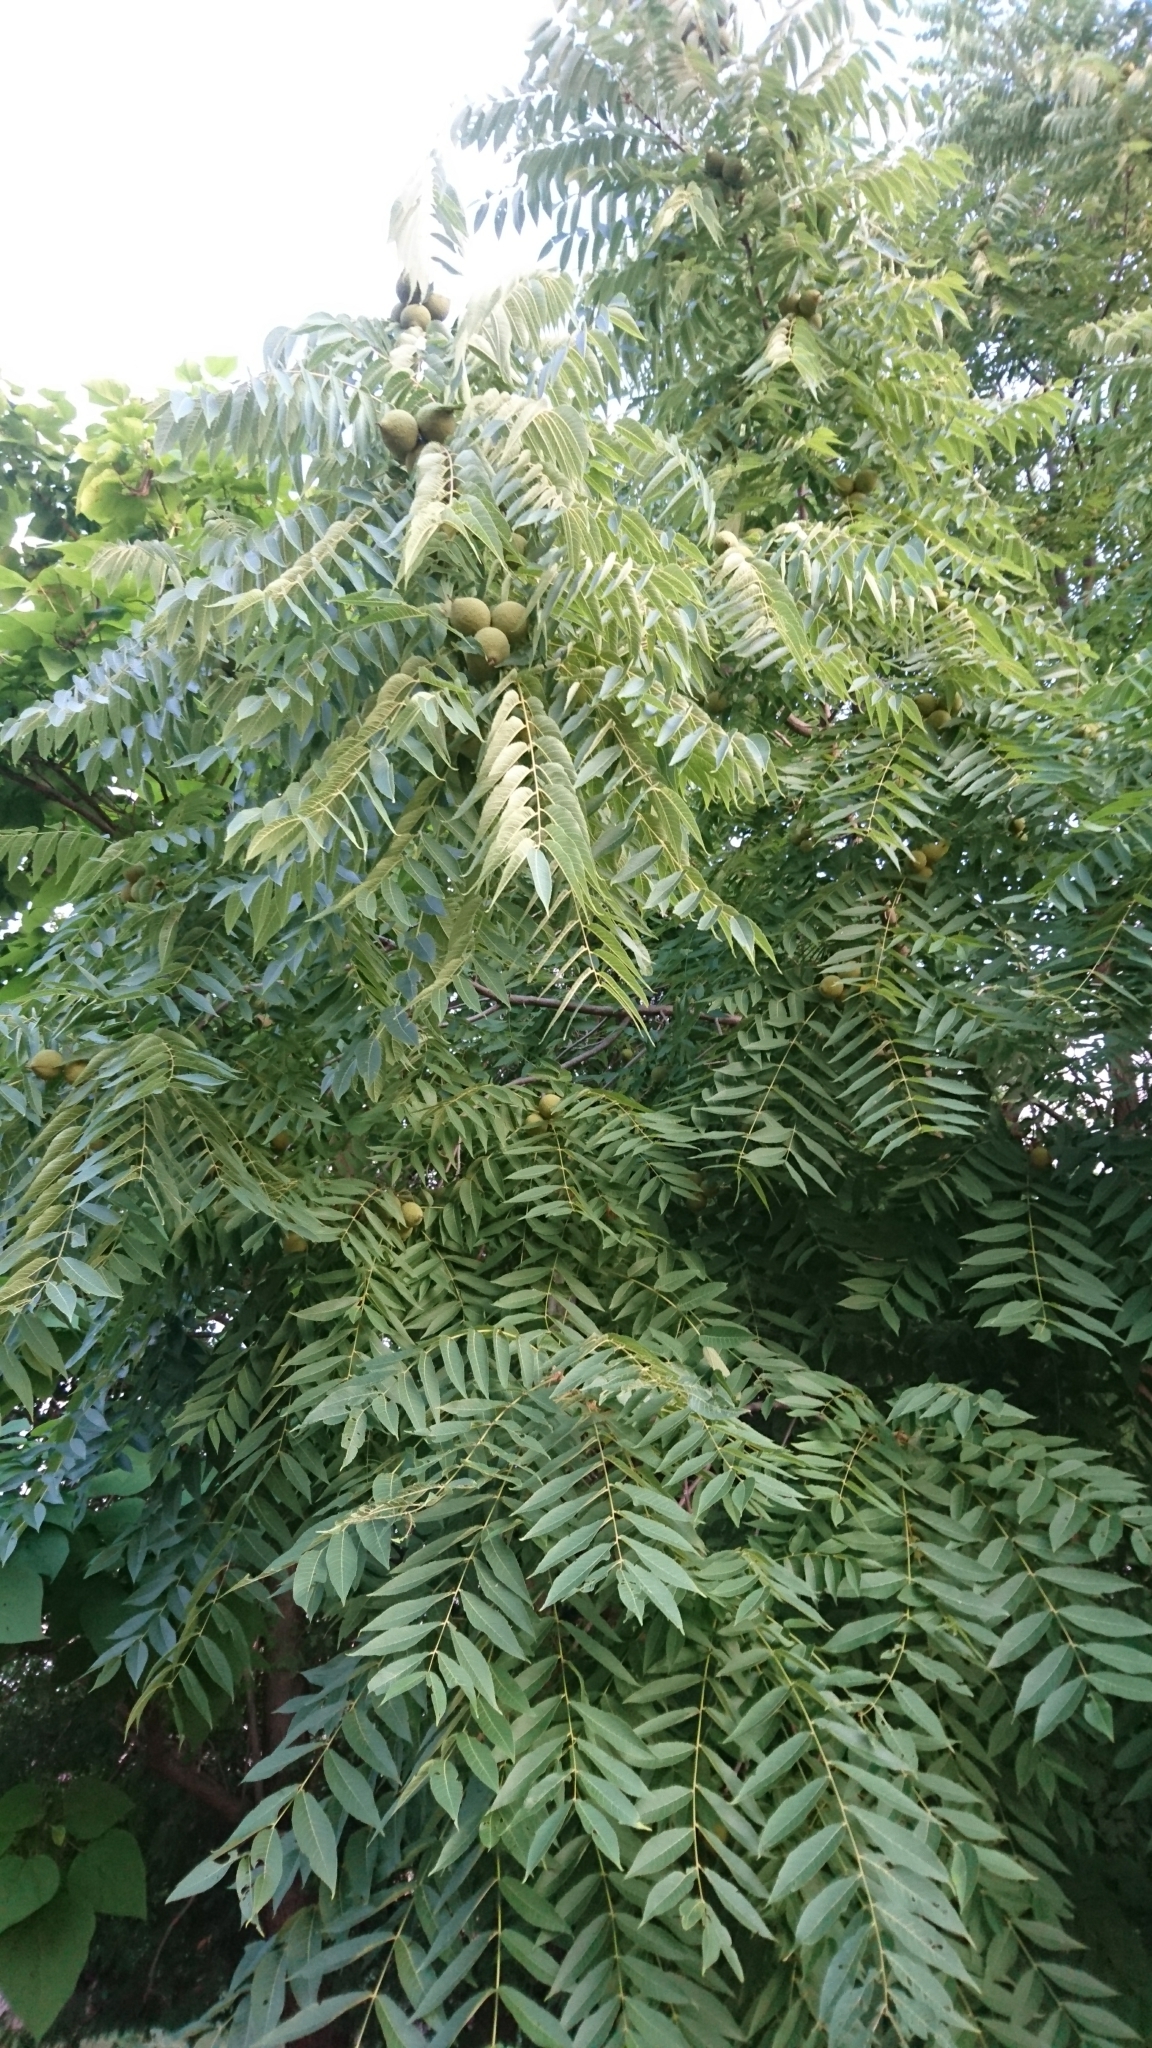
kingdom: Plantae
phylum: Tracheophyta
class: Magnoliopsida
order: Fagales
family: Juglandaceae
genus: Juglans
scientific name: Juglans nigra
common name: Black walnut
